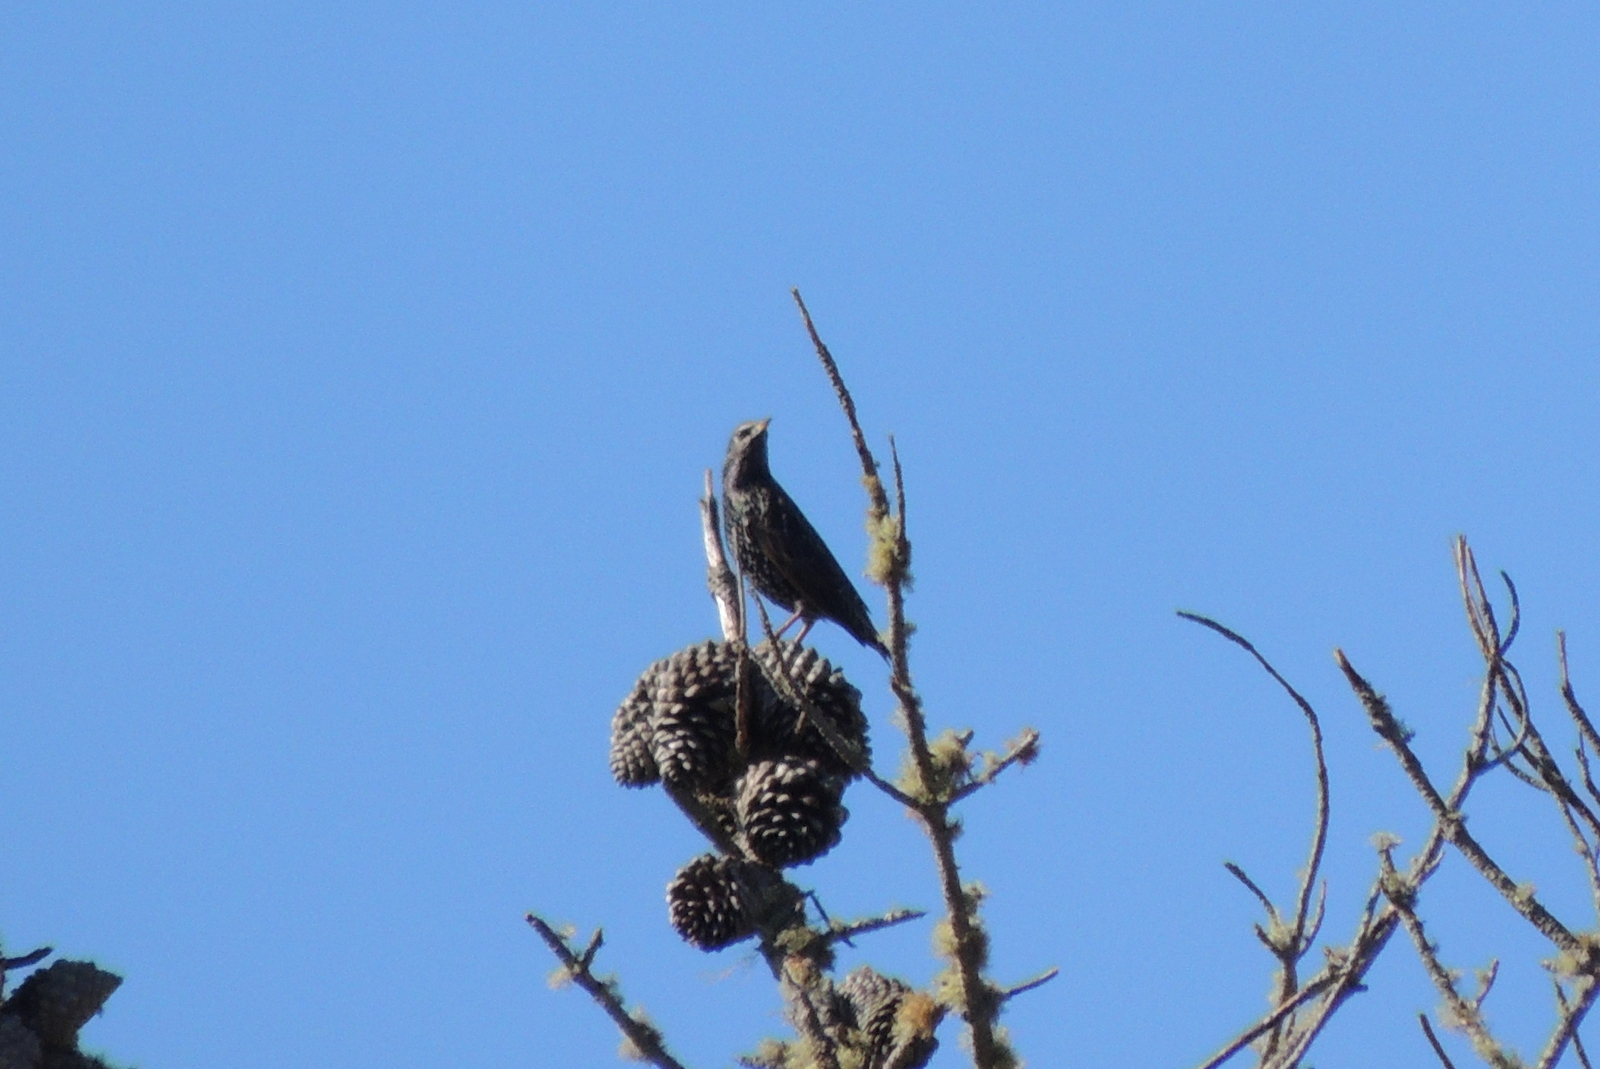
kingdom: Animalia
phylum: Chordata
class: Aves
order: Passeriformes
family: Sturnidae
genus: Sturnus
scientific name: Sturnus vulgaris
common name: Common starling
